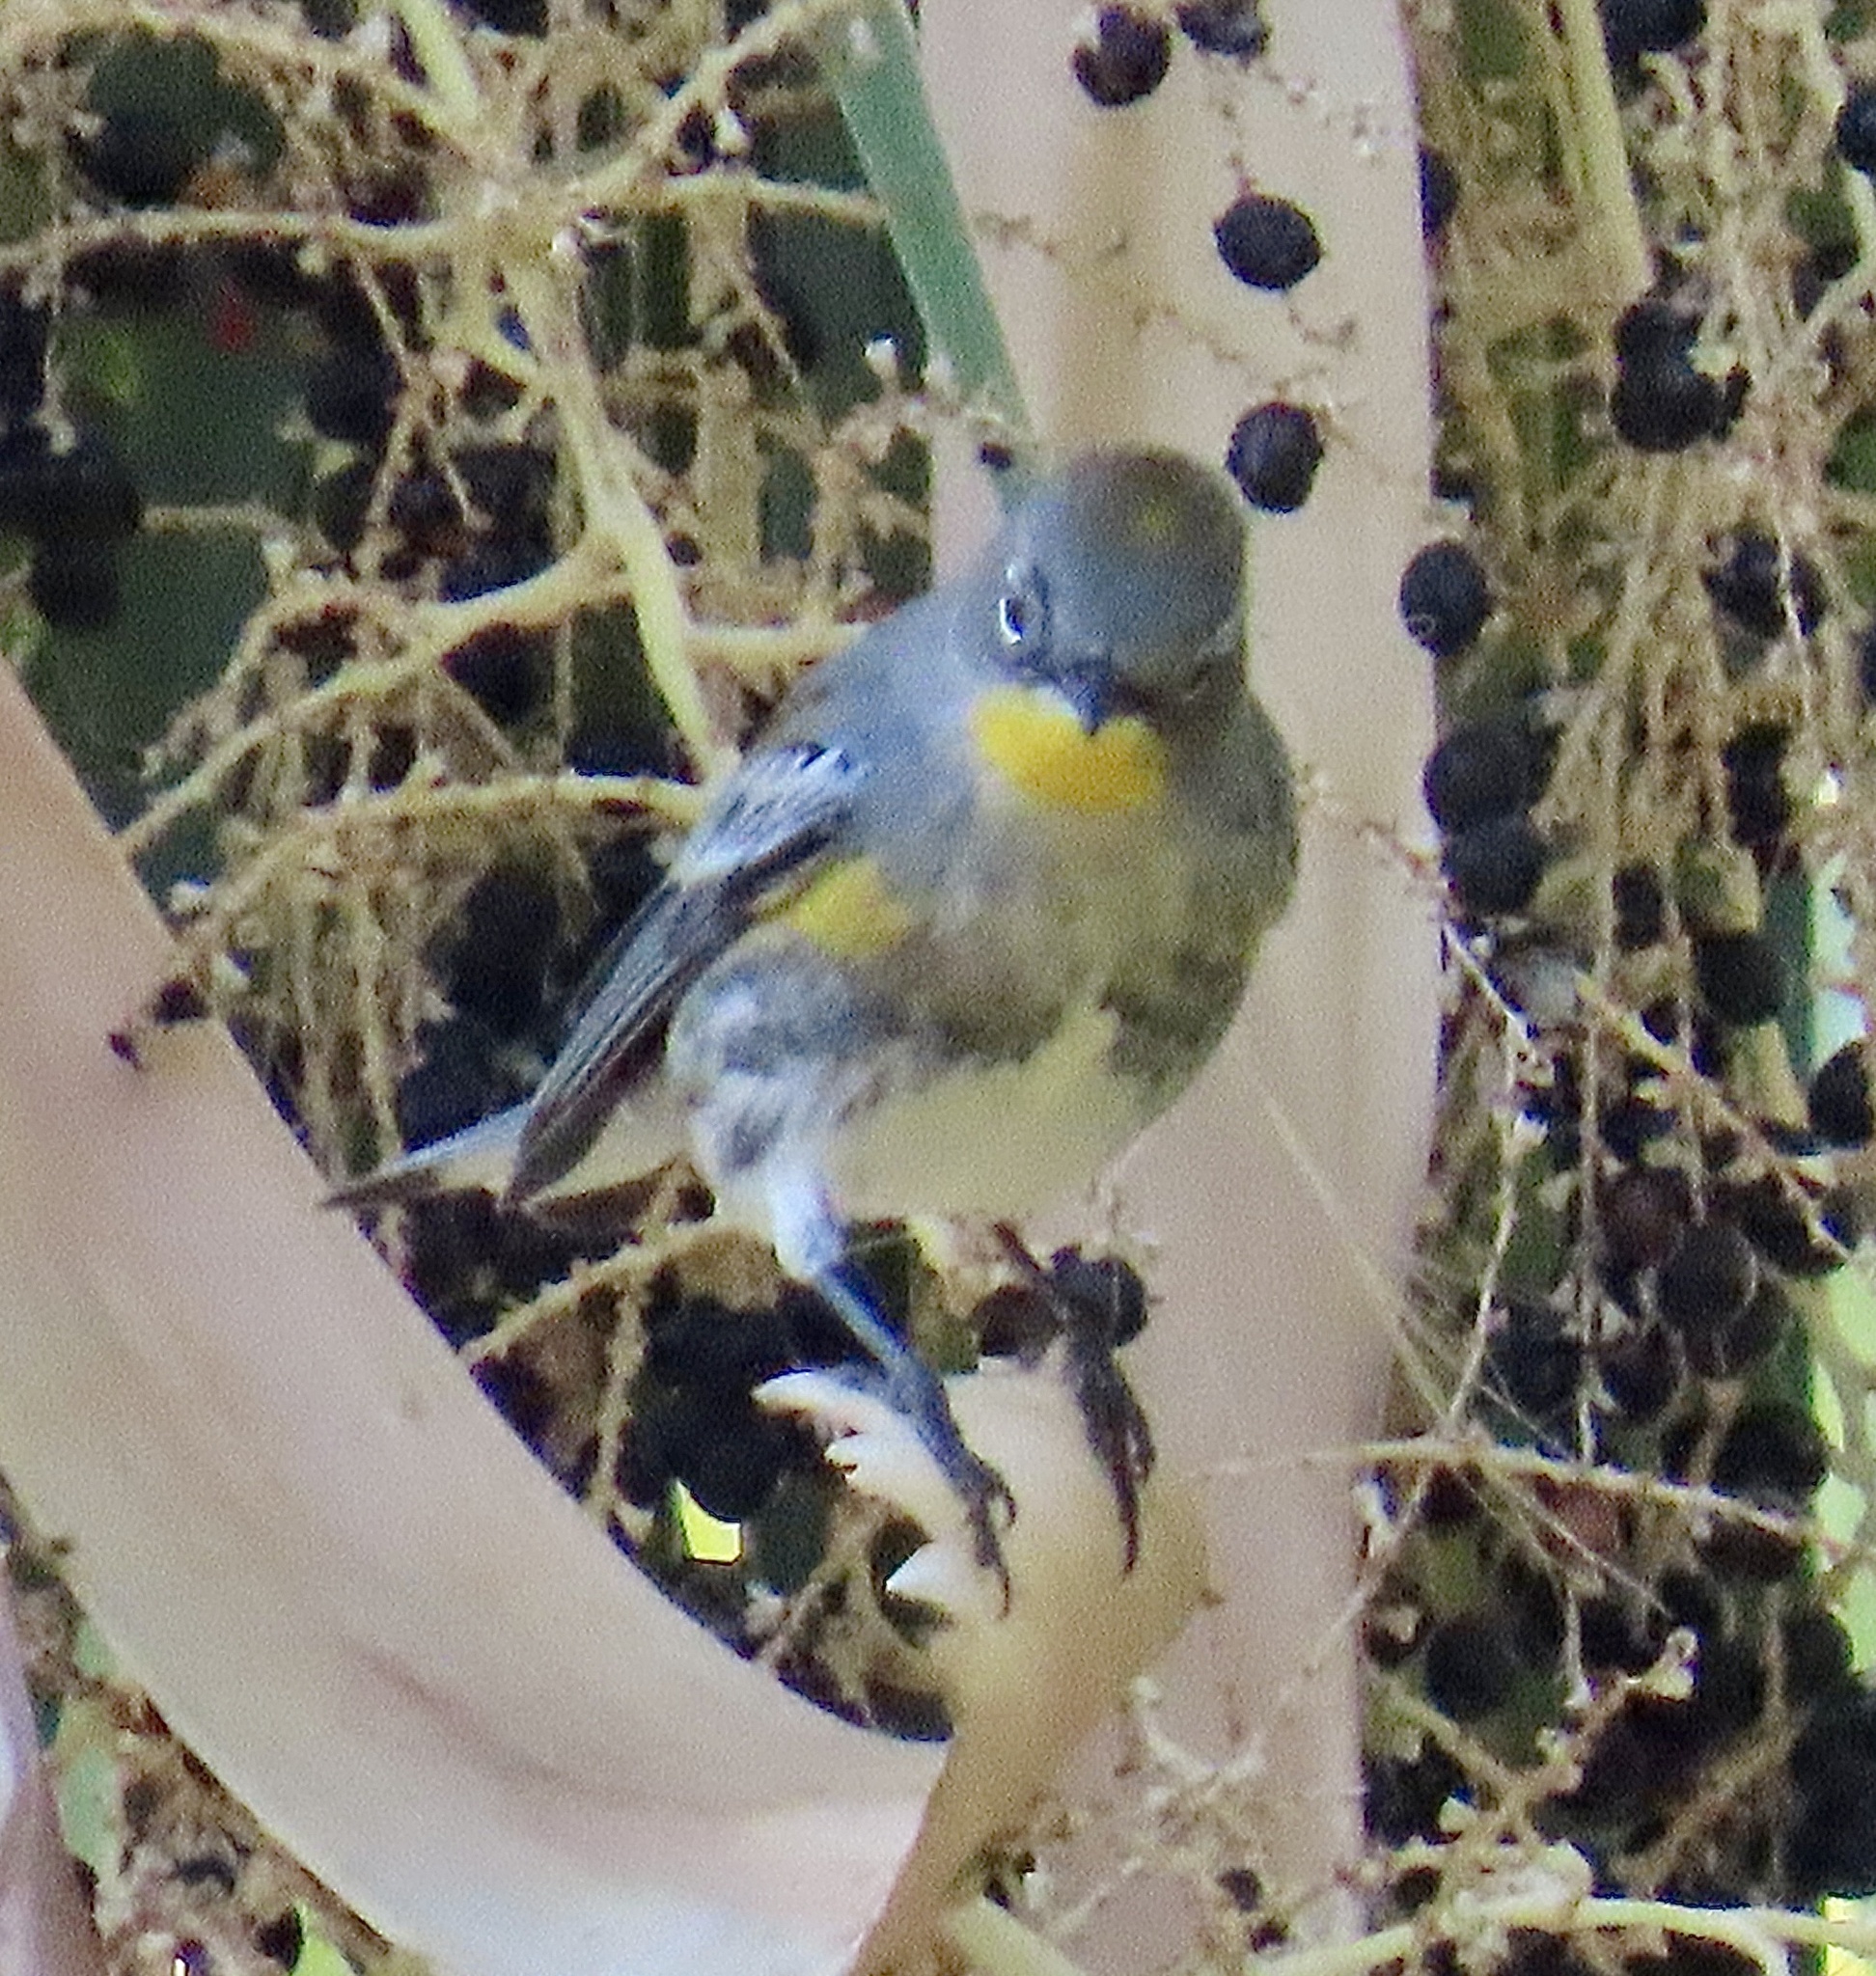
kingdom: Animalia
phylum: Chordata
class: Aves
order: Passeriformes
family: Parulidae
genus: Setophaga
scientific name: Setophaga coronata
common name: Myrtle warbler
